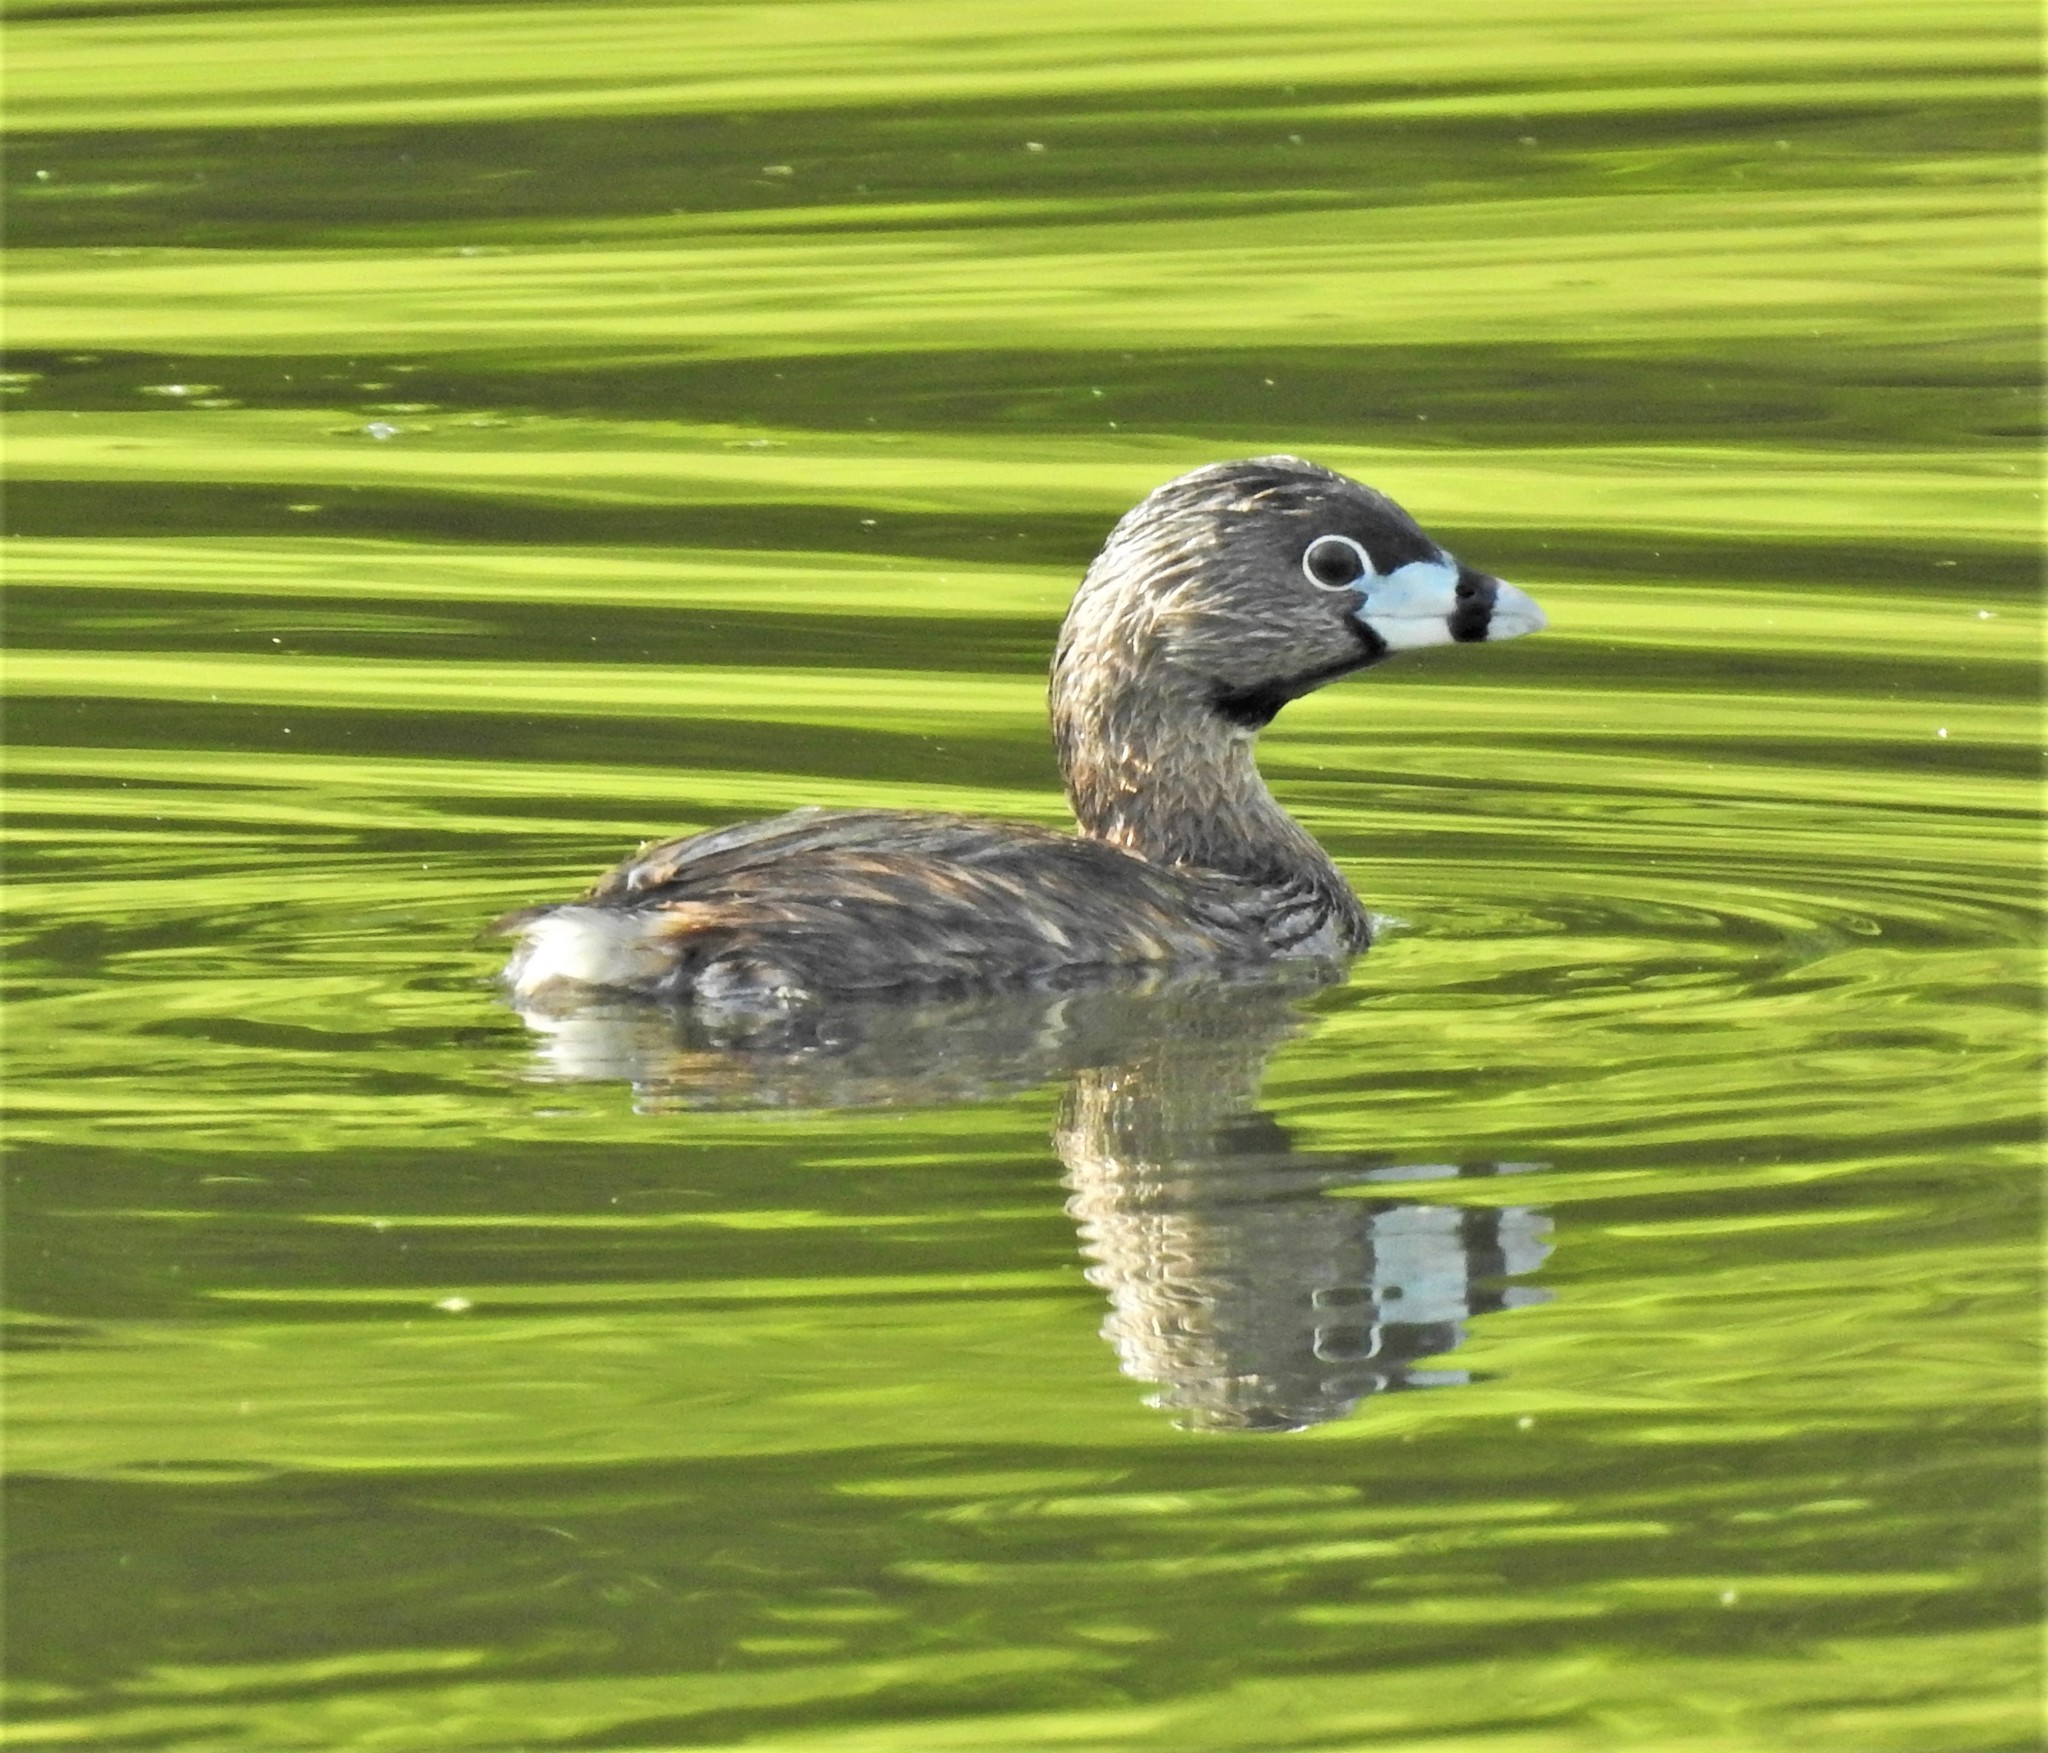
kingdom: Animalia
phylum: Chordata
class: Aves
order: Podicipediformes
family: Podicipedidae
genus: Podilymbus
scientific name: Podilymbus podiceps
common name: Pied-billed grebe
